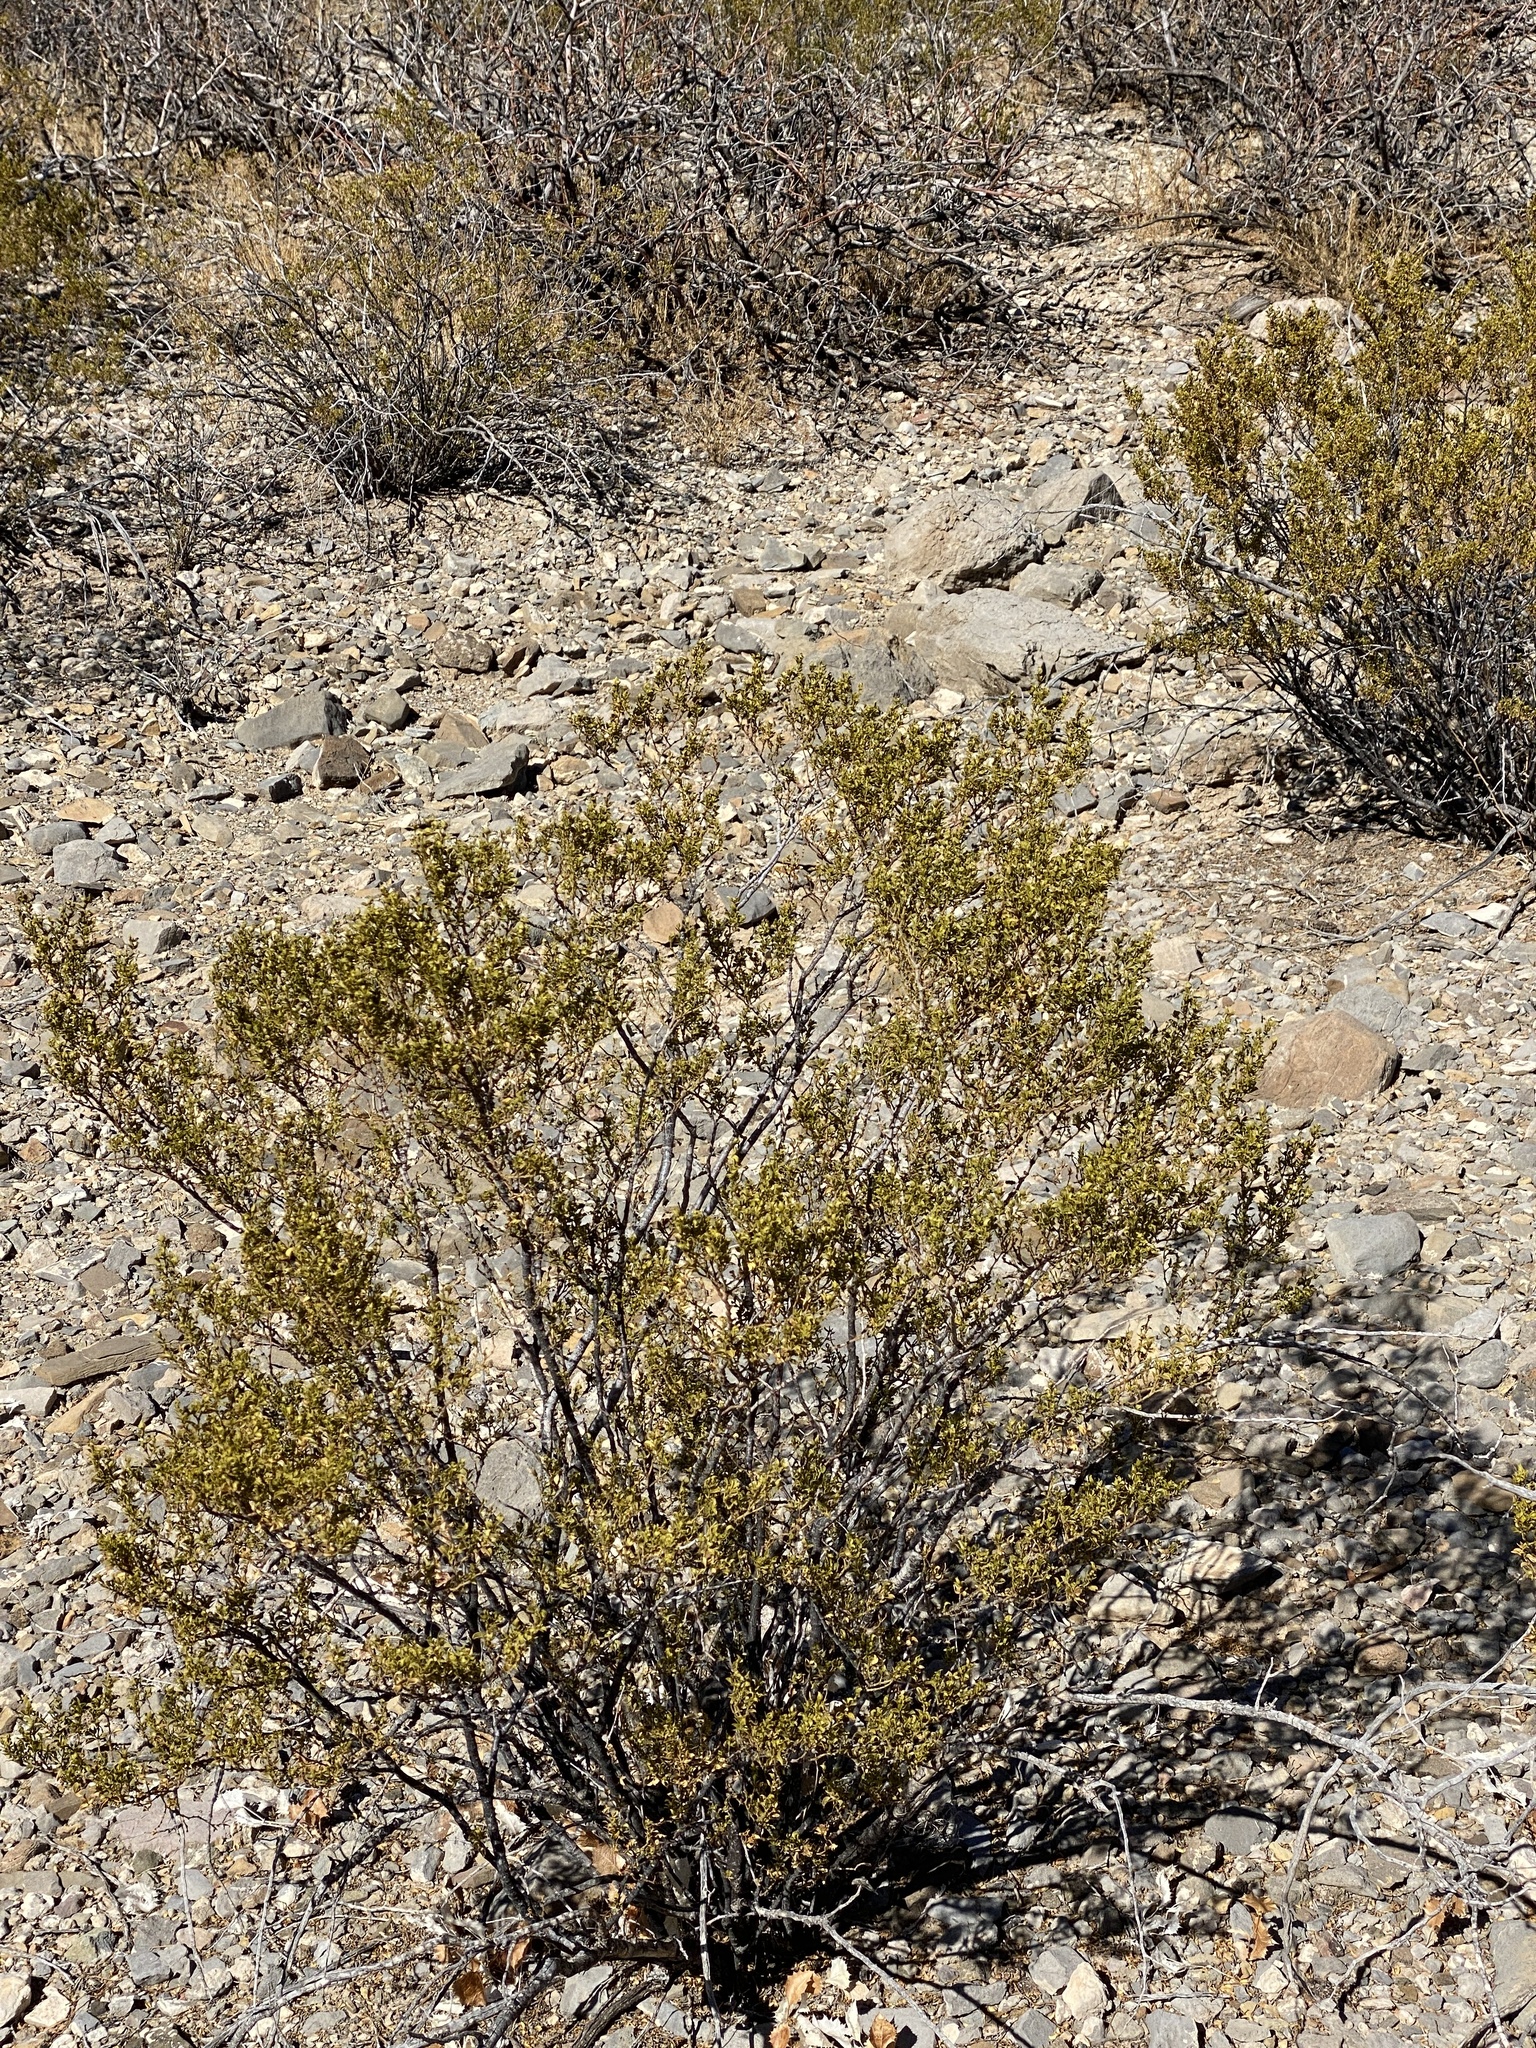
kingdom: Plantae
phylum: Tracheophyta
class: Magnoliopsida
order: Zygophyllales
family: Zygophyllaceae
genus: Larrea
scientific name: Larrea tridentata
